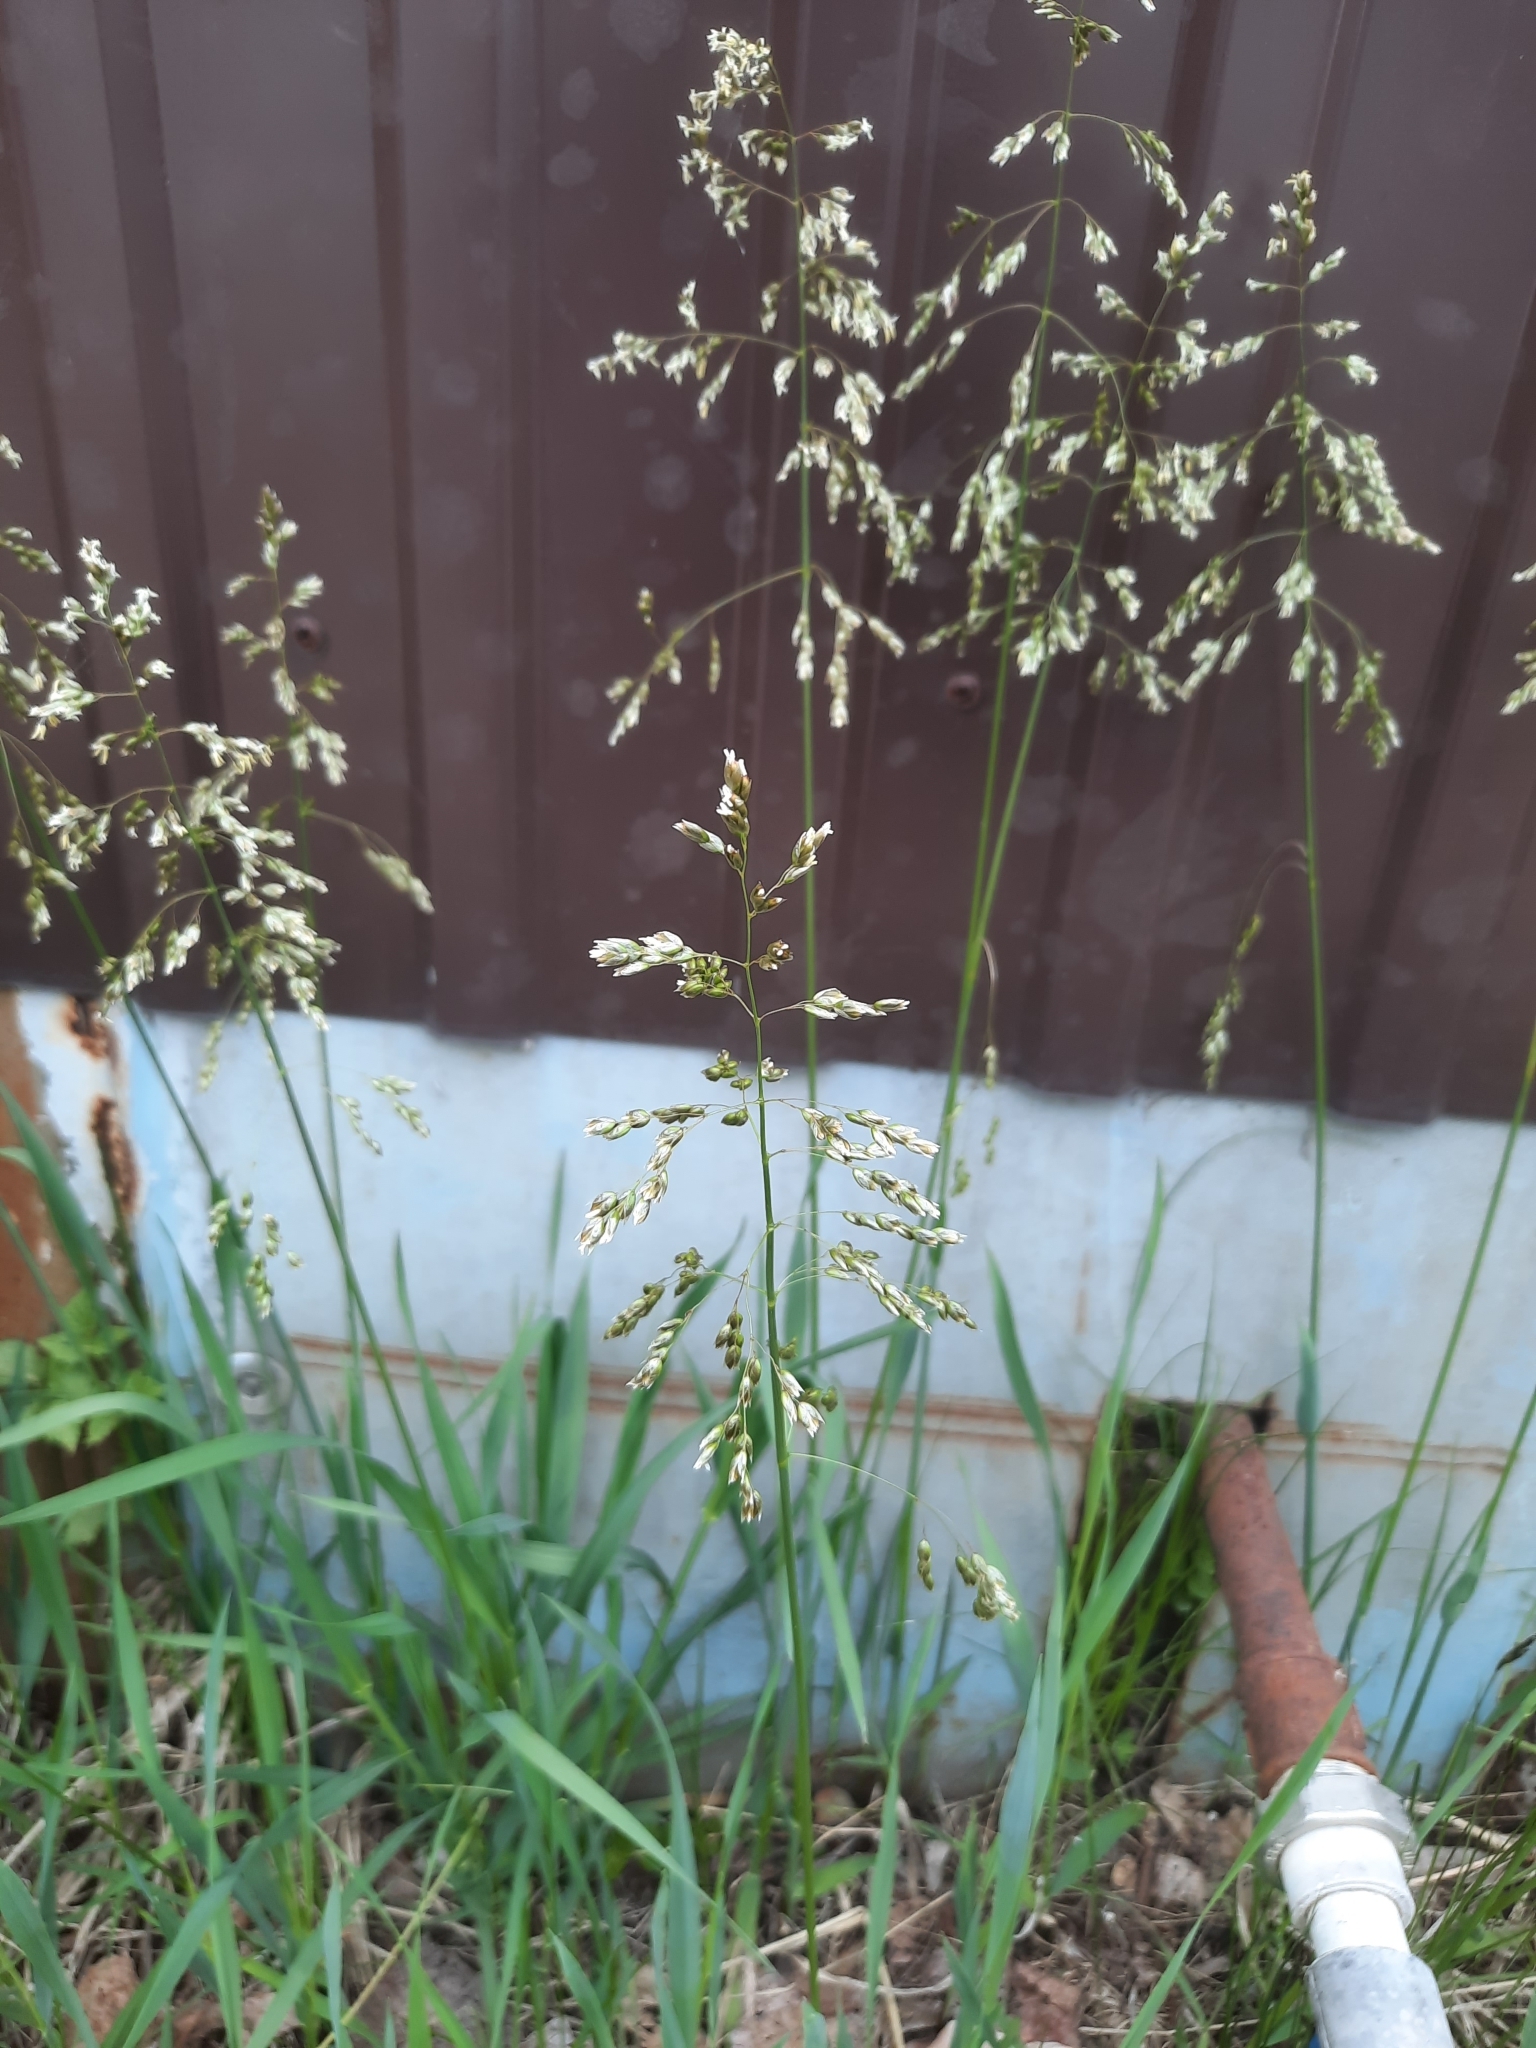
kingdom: Plantae
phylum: Tracheophyta
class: Liliopsida
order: Poales
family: Poaceae
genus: Anthoxanthum
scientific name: Anthoxanthum nitens
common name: Holy grass
